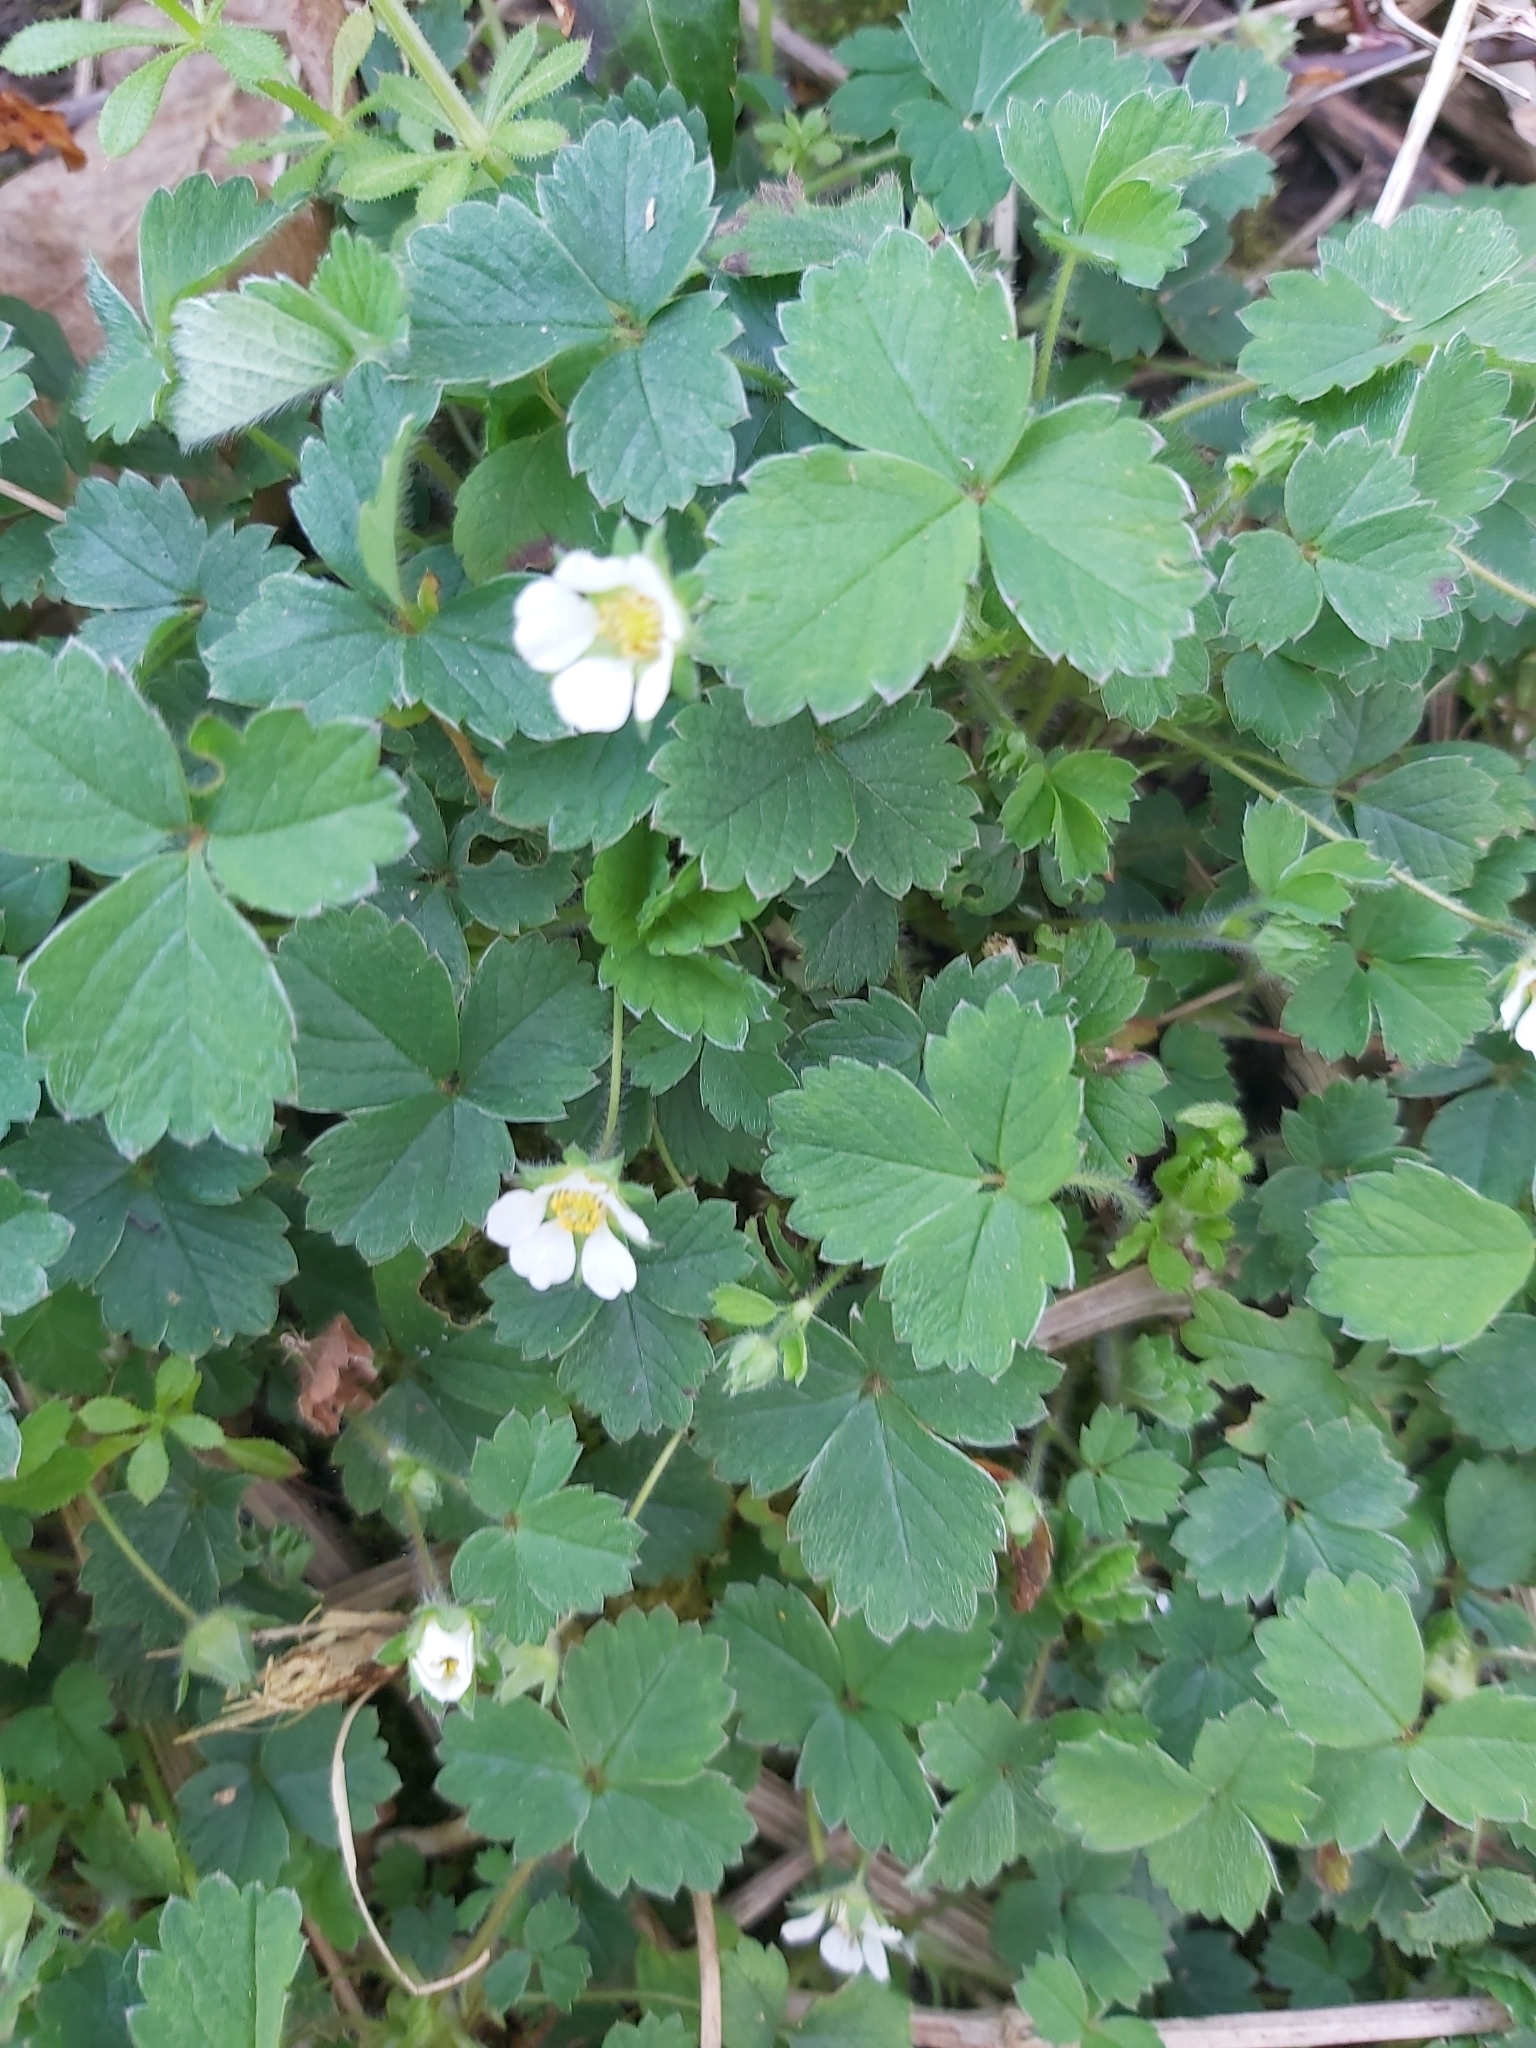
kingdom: Plantae
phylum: Tracheophyta
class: Magnoliopsida
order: Rosales
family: Rosaceae
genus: Potentilla
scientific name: Potentilla sterilis
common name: Barren strawberry
